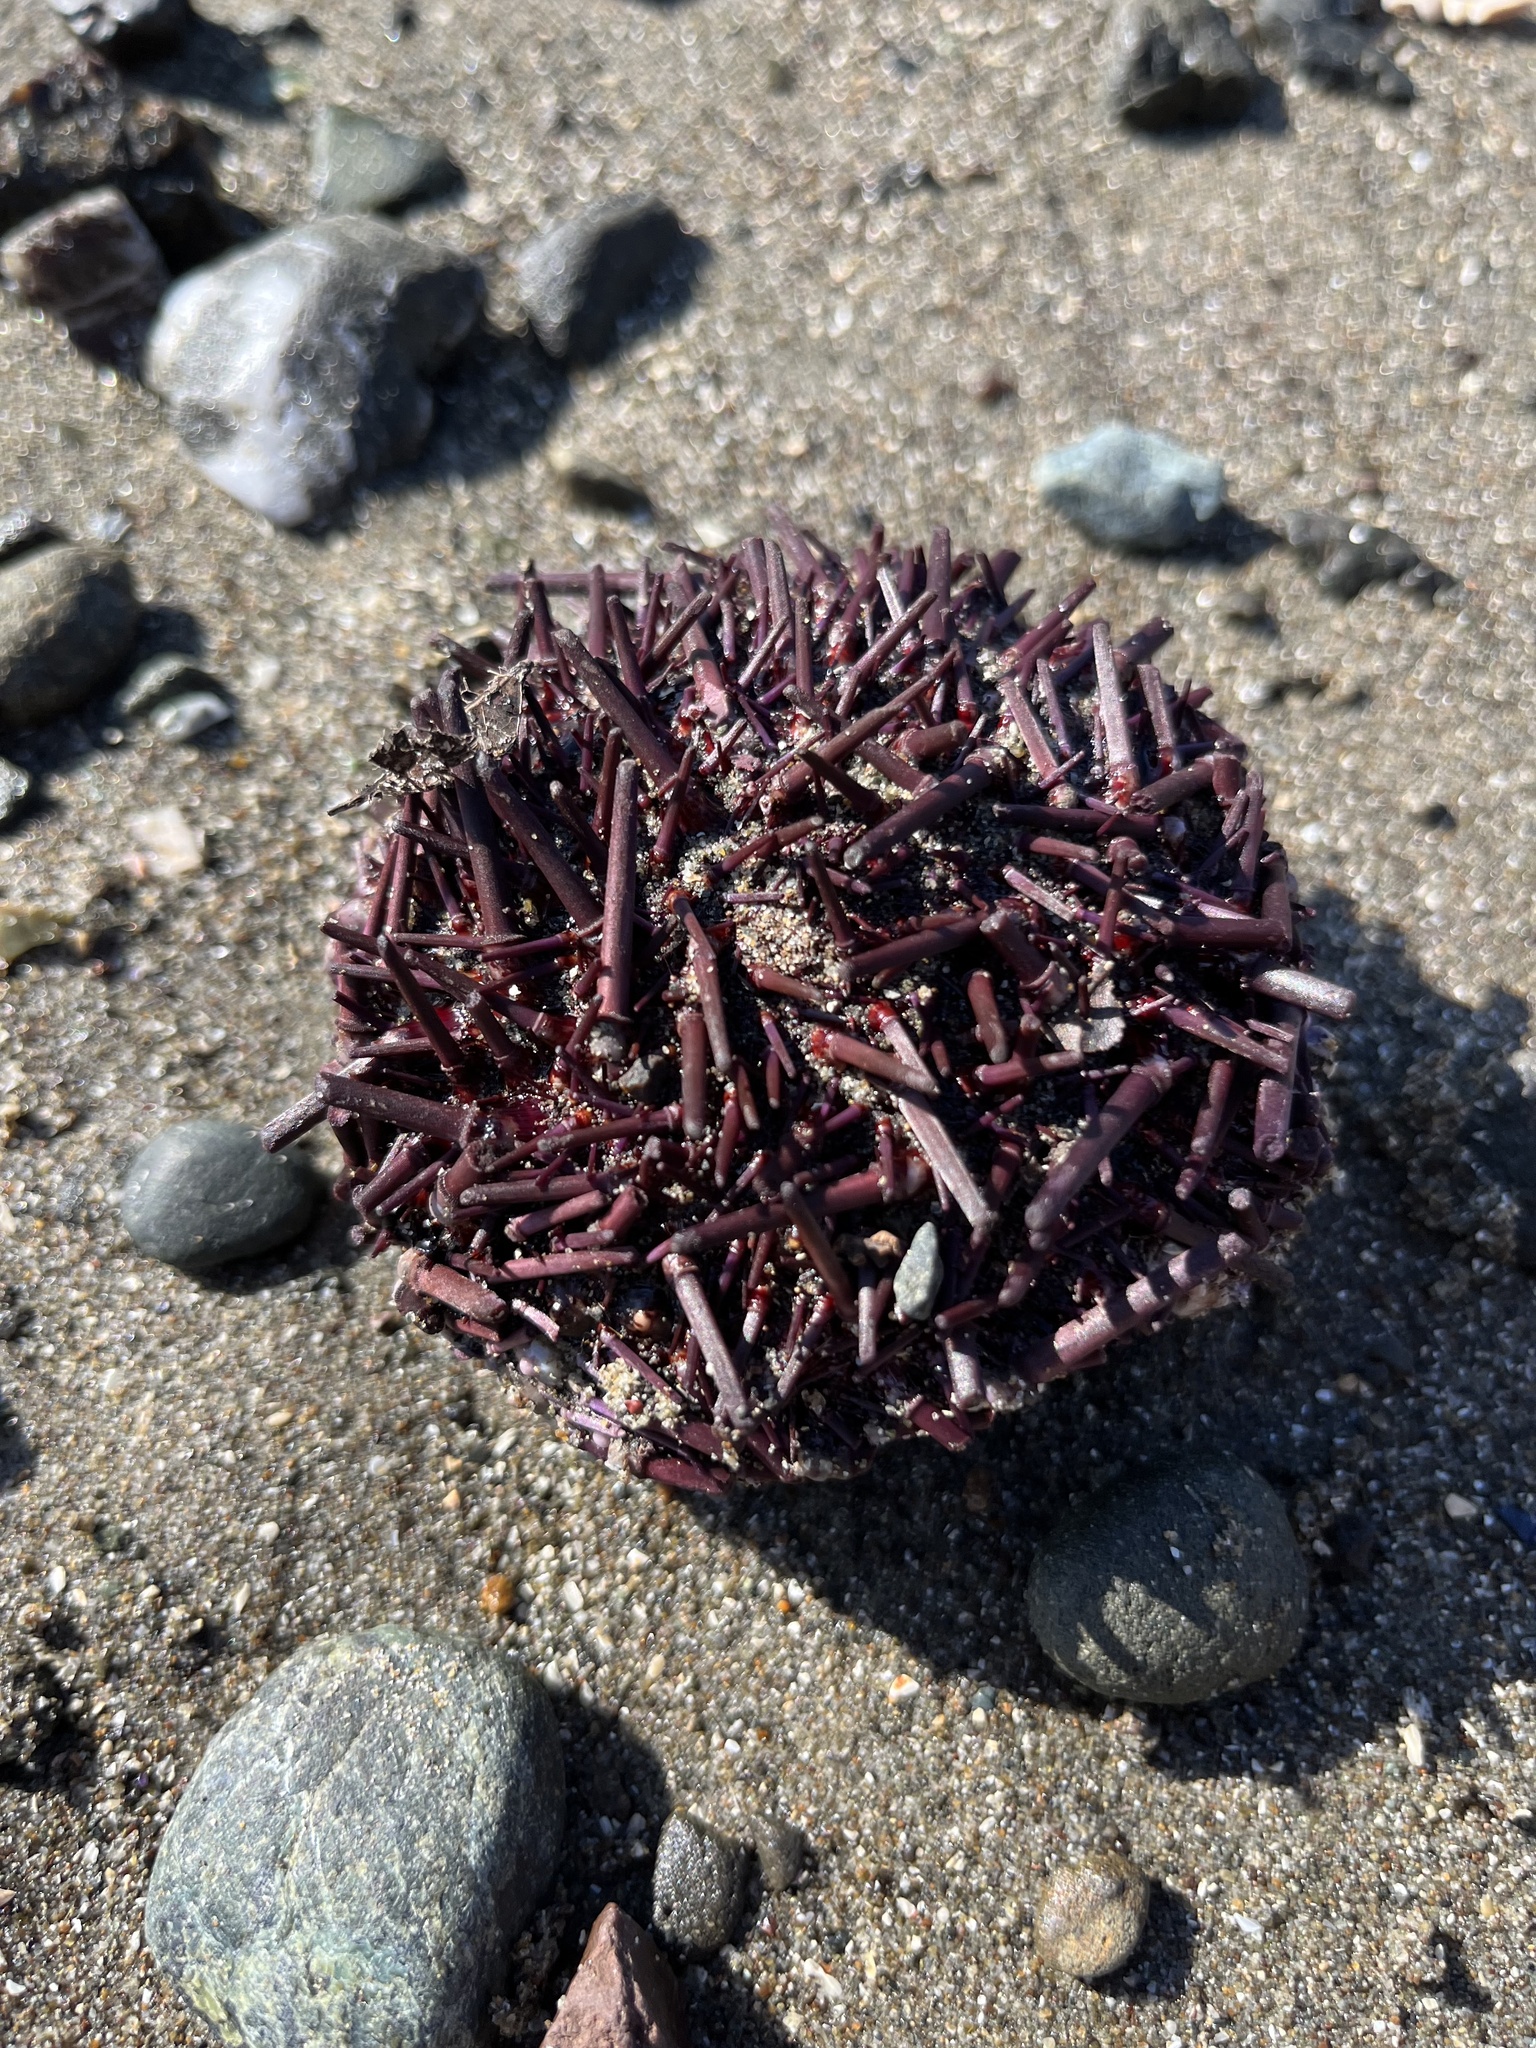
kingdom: Animalia
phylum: Echinodermata
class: Echinoidea
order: Camarodonta
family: Strongylocentrotidae
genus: Strongylocentrotus
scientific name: Strongylocentrotus purpuratus
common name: Purple sea urchin
